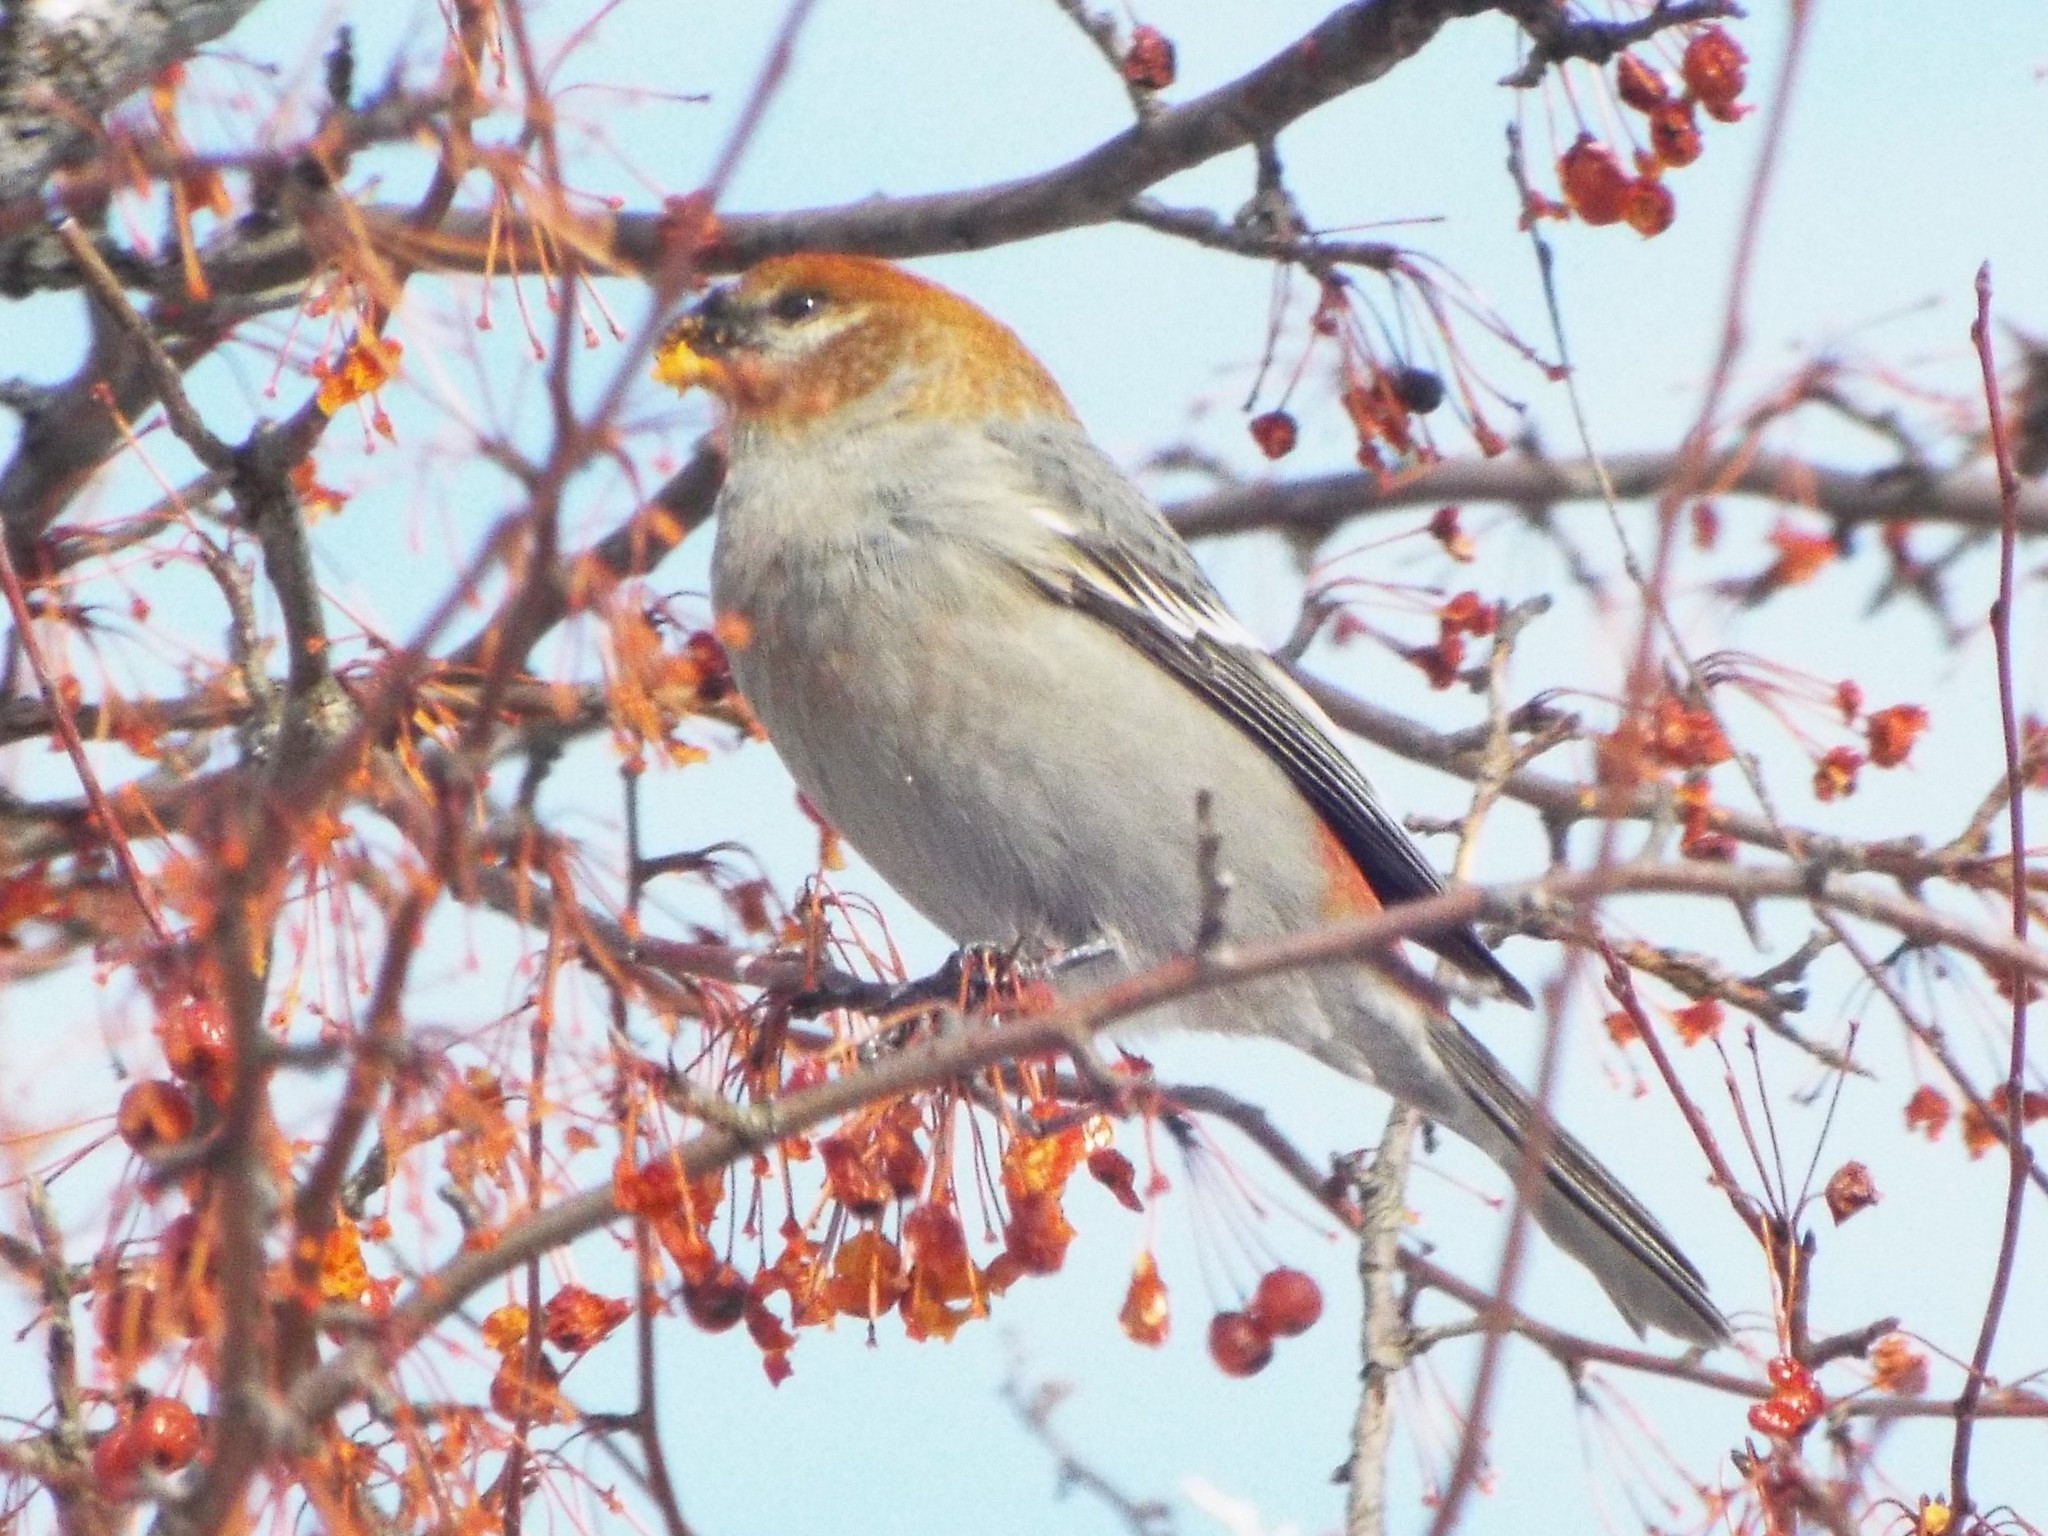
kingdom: Animalia
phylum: Chordata
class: Aves
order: Passeriformes
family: Fringillidae
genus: Pinicola
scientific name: Pinicola enucleator
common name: Pine grosbeak
